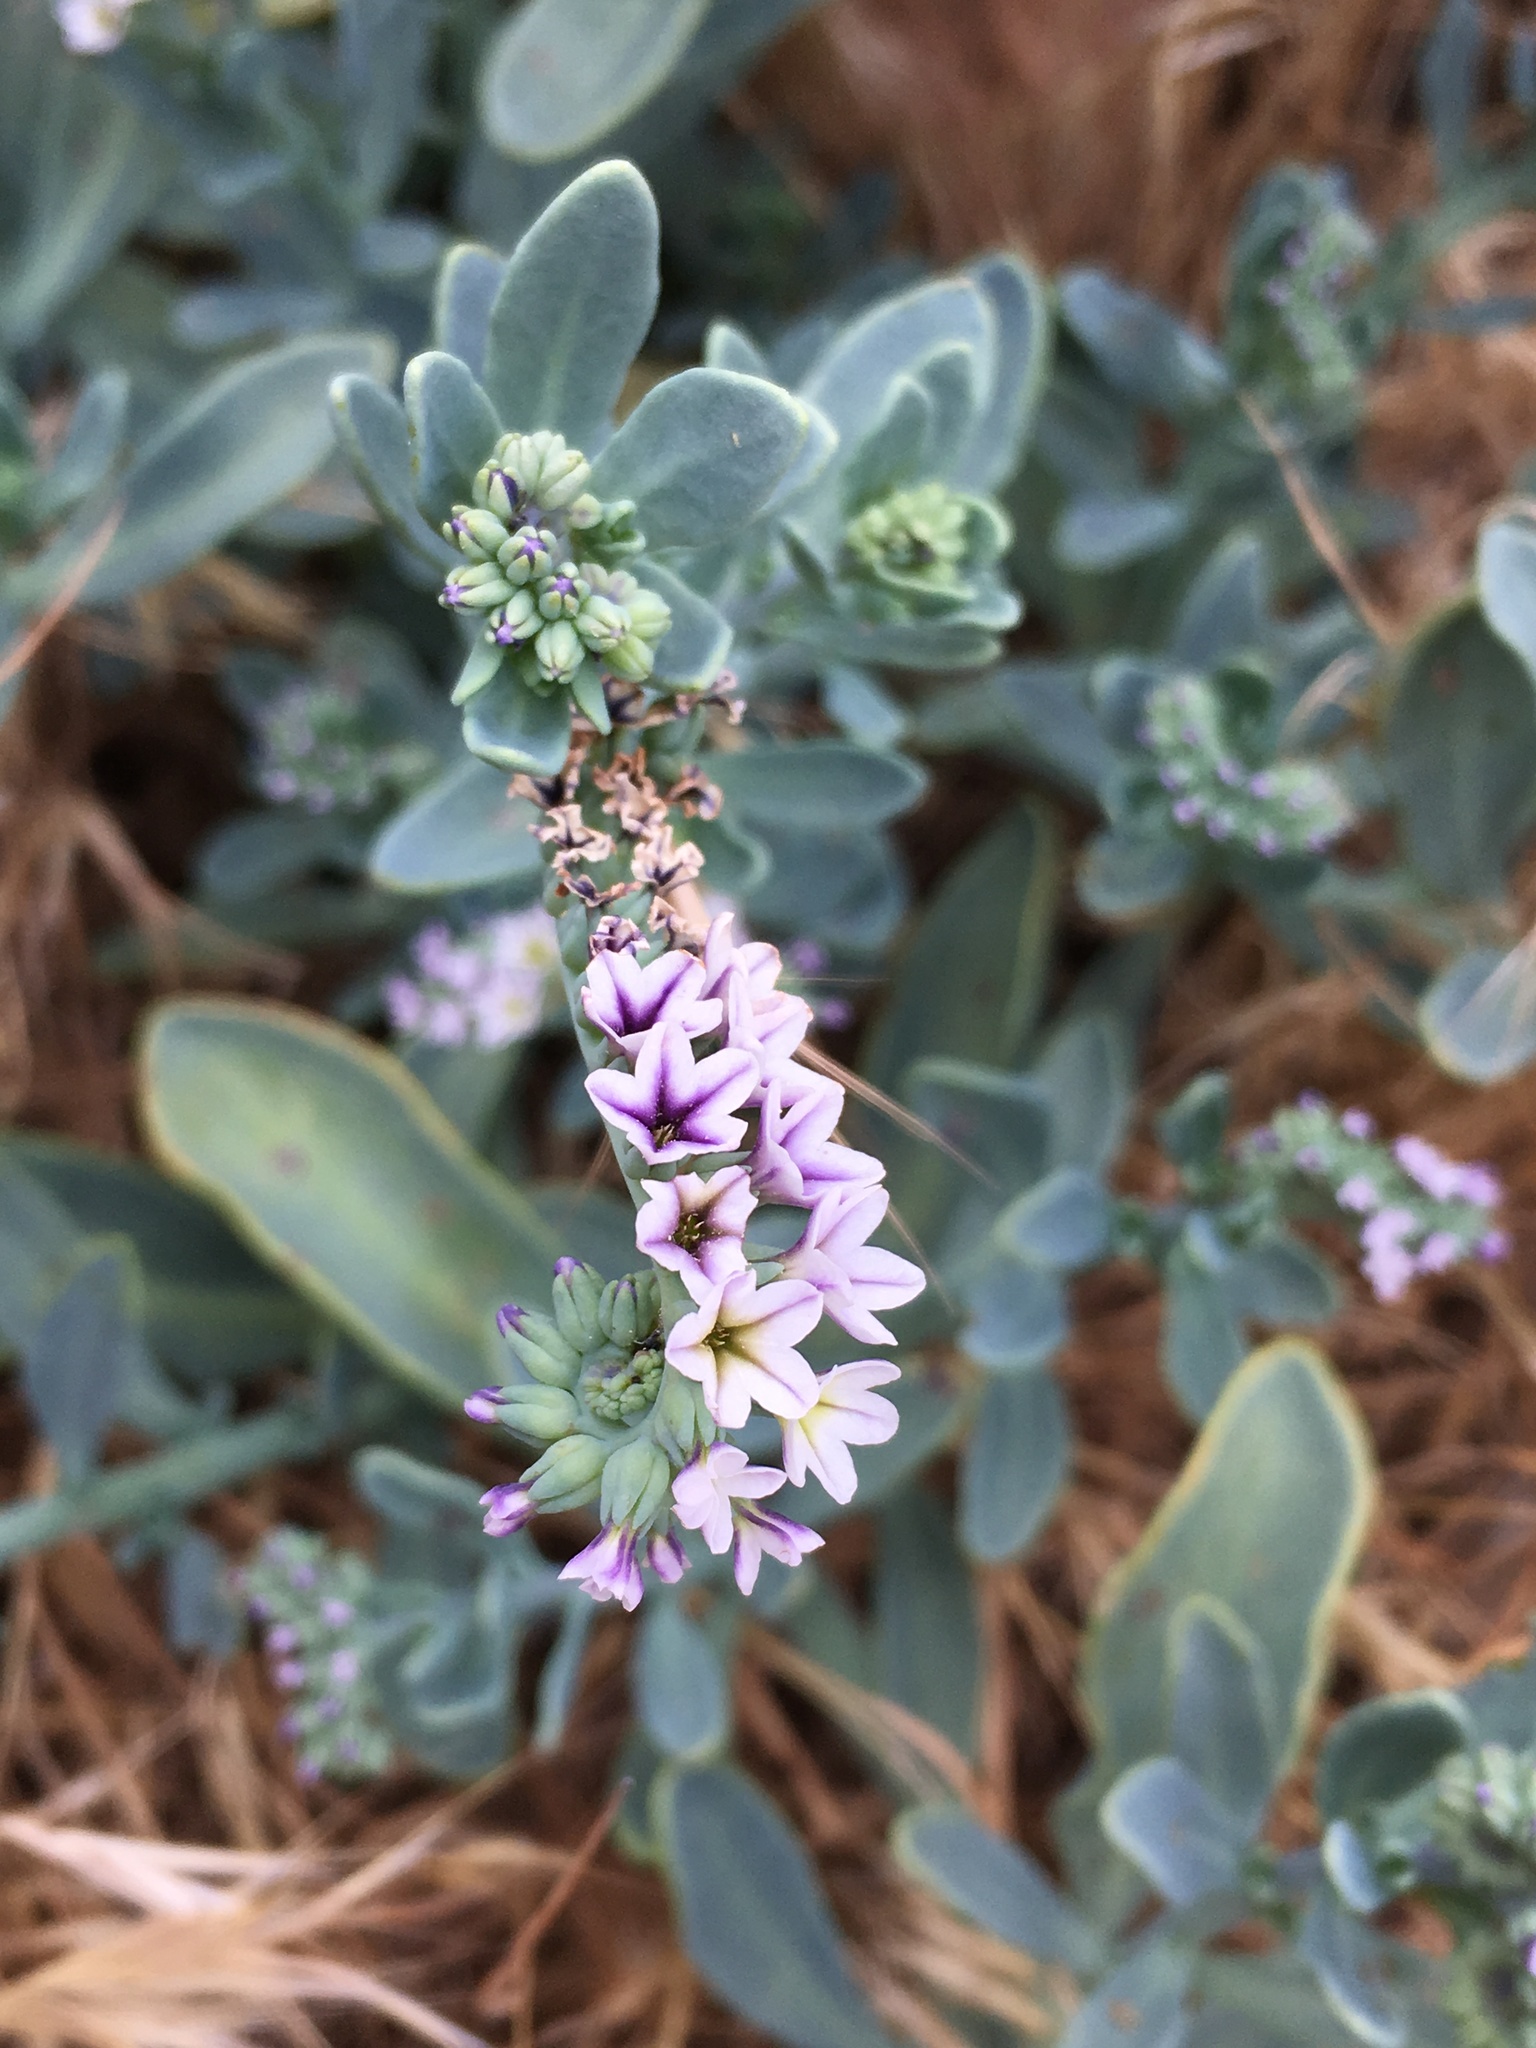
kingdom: Plantae
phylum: Tracheophyta
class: Magnoliopsida
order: Boraginales
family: Heliotropiaceae
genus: Heliotropium
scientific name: Heliotropium curassavicum
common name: Seaside heliotrope
